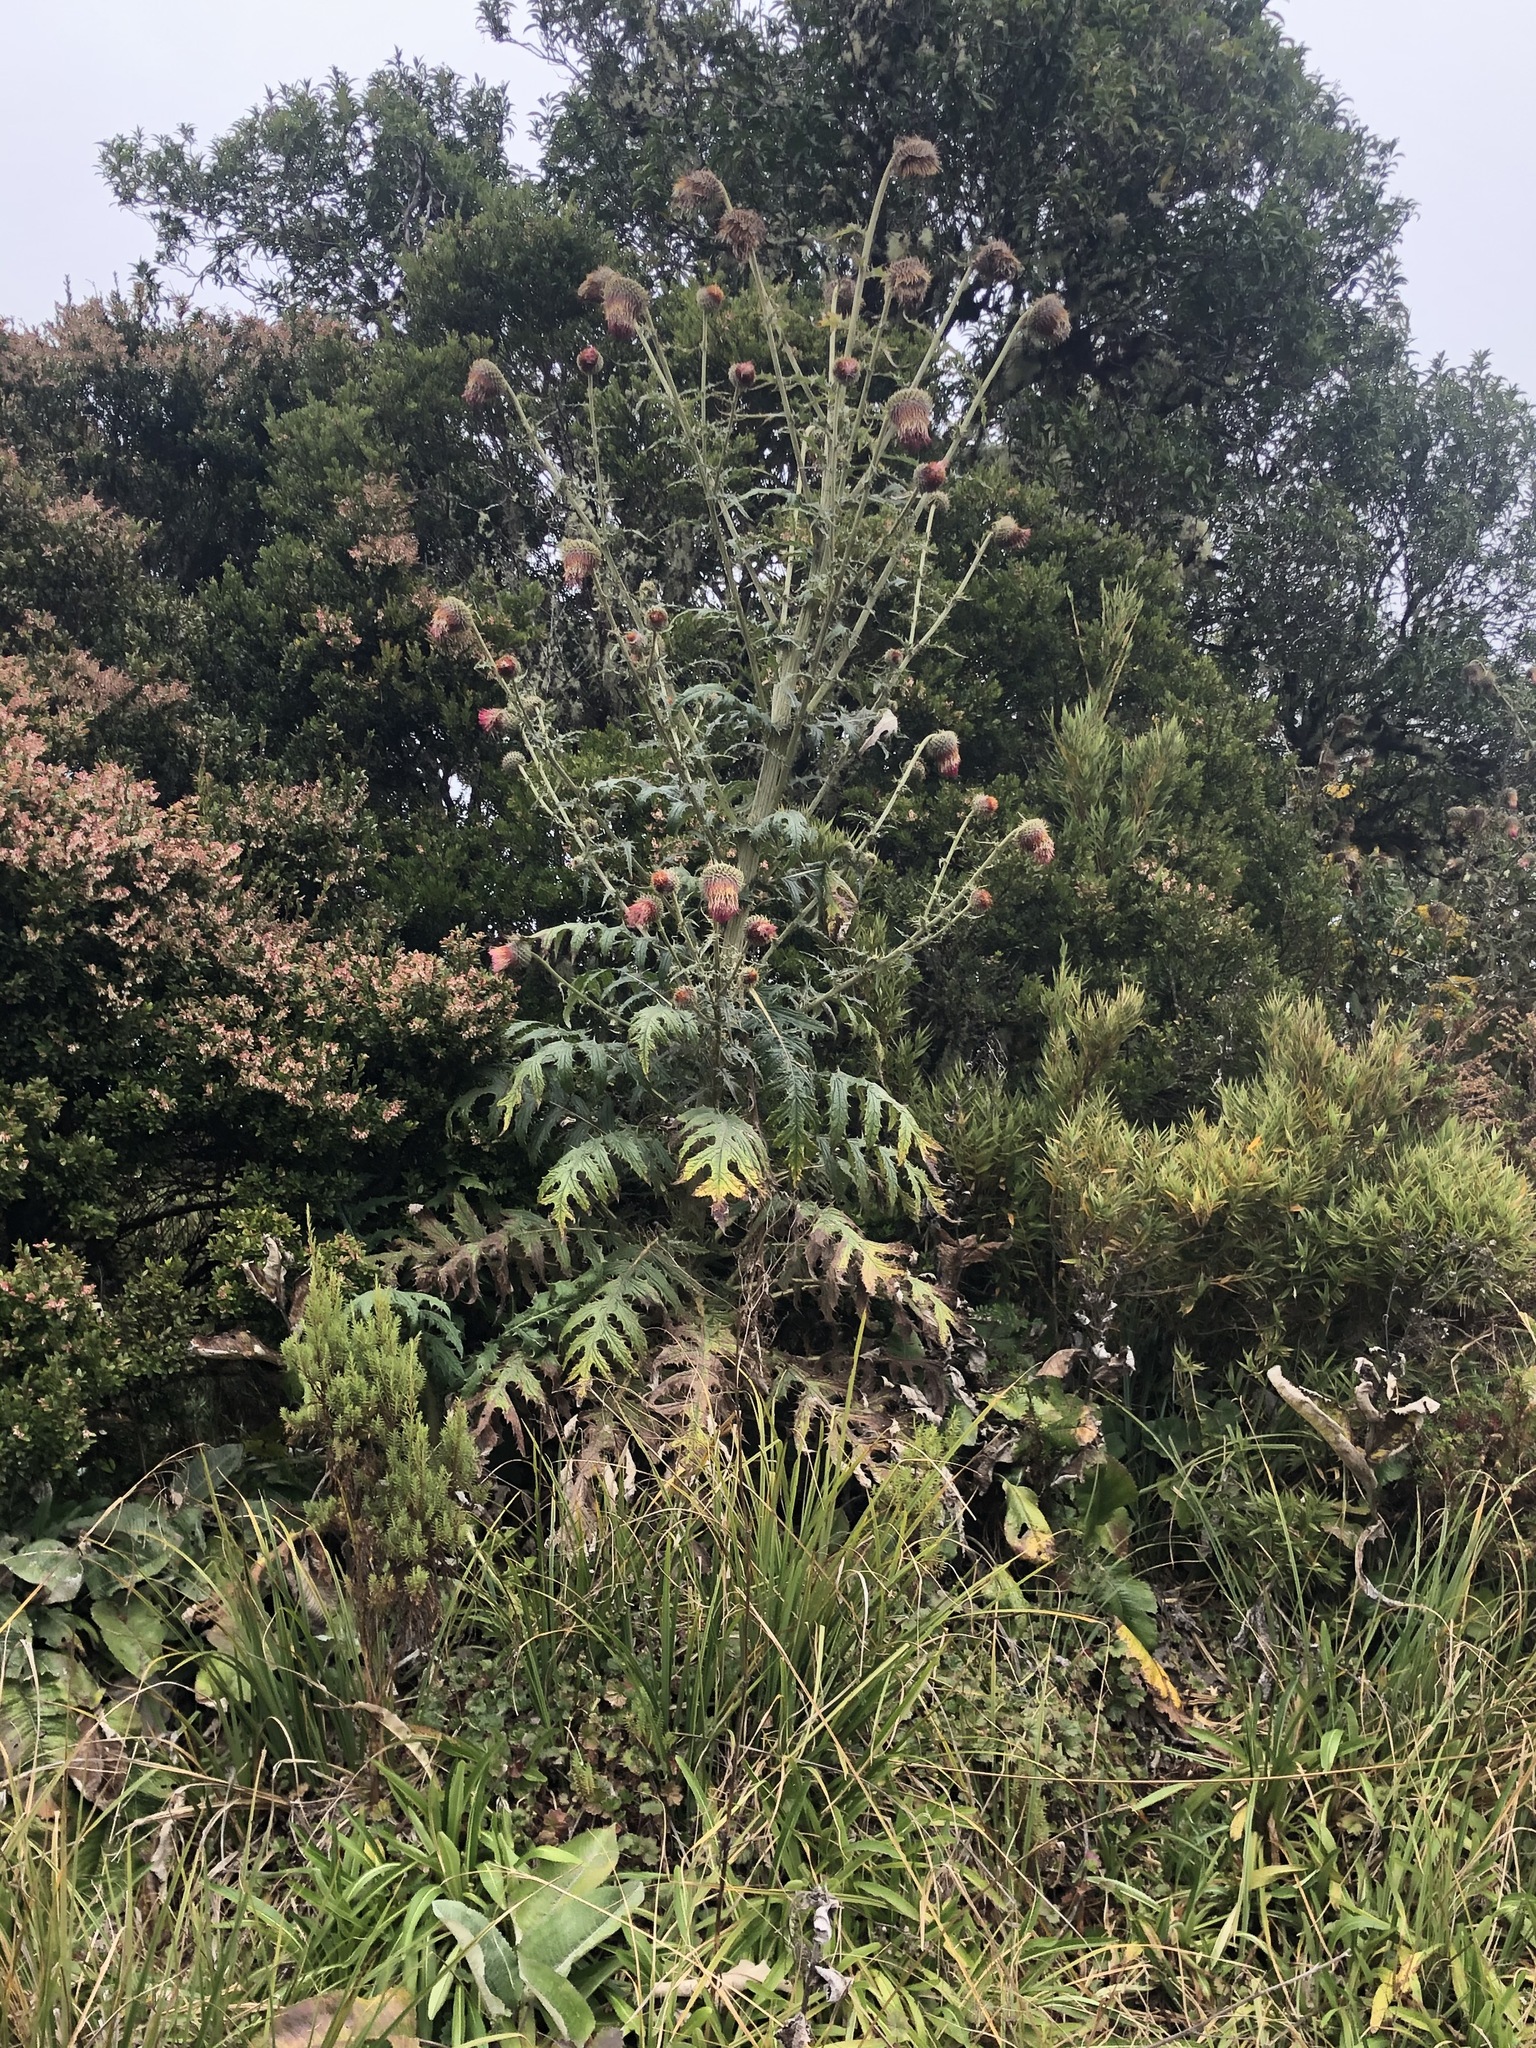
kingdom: Plantae
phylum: Tracheophyta
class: Magnoliopsida
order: Asterales
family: Asteraceae
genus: Cirsium
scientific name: Cirsium subcoriaceum
